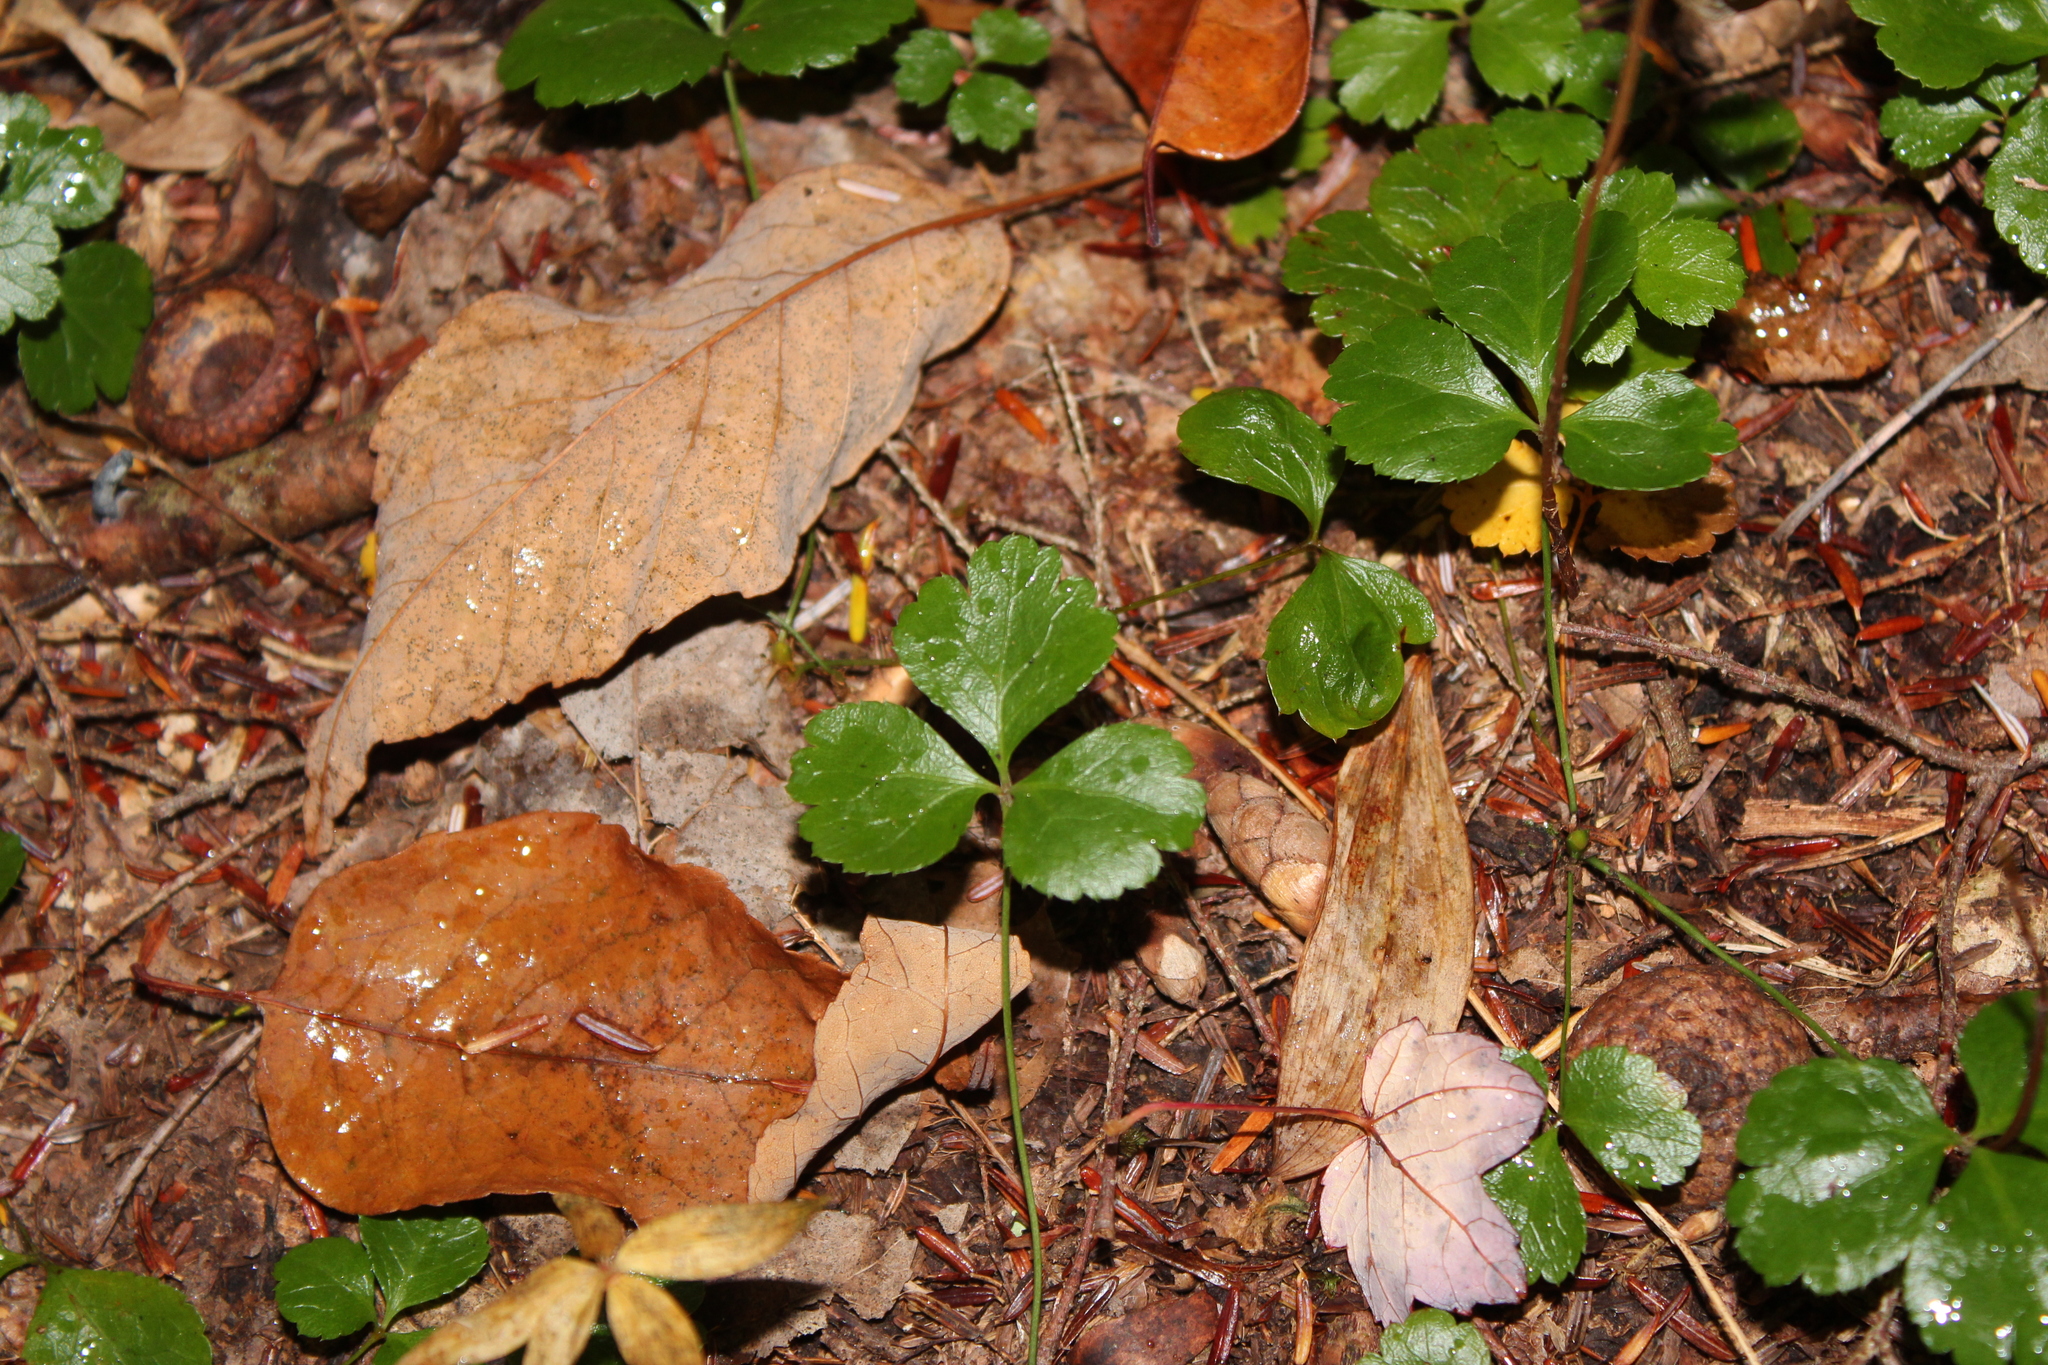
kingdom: Plantae
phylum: Tracheophyta
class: Magnoliopsida
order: Ranunculales
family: Ranunculaceae
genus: Coptis
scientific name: Coptis trifolia
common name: Canker-root
